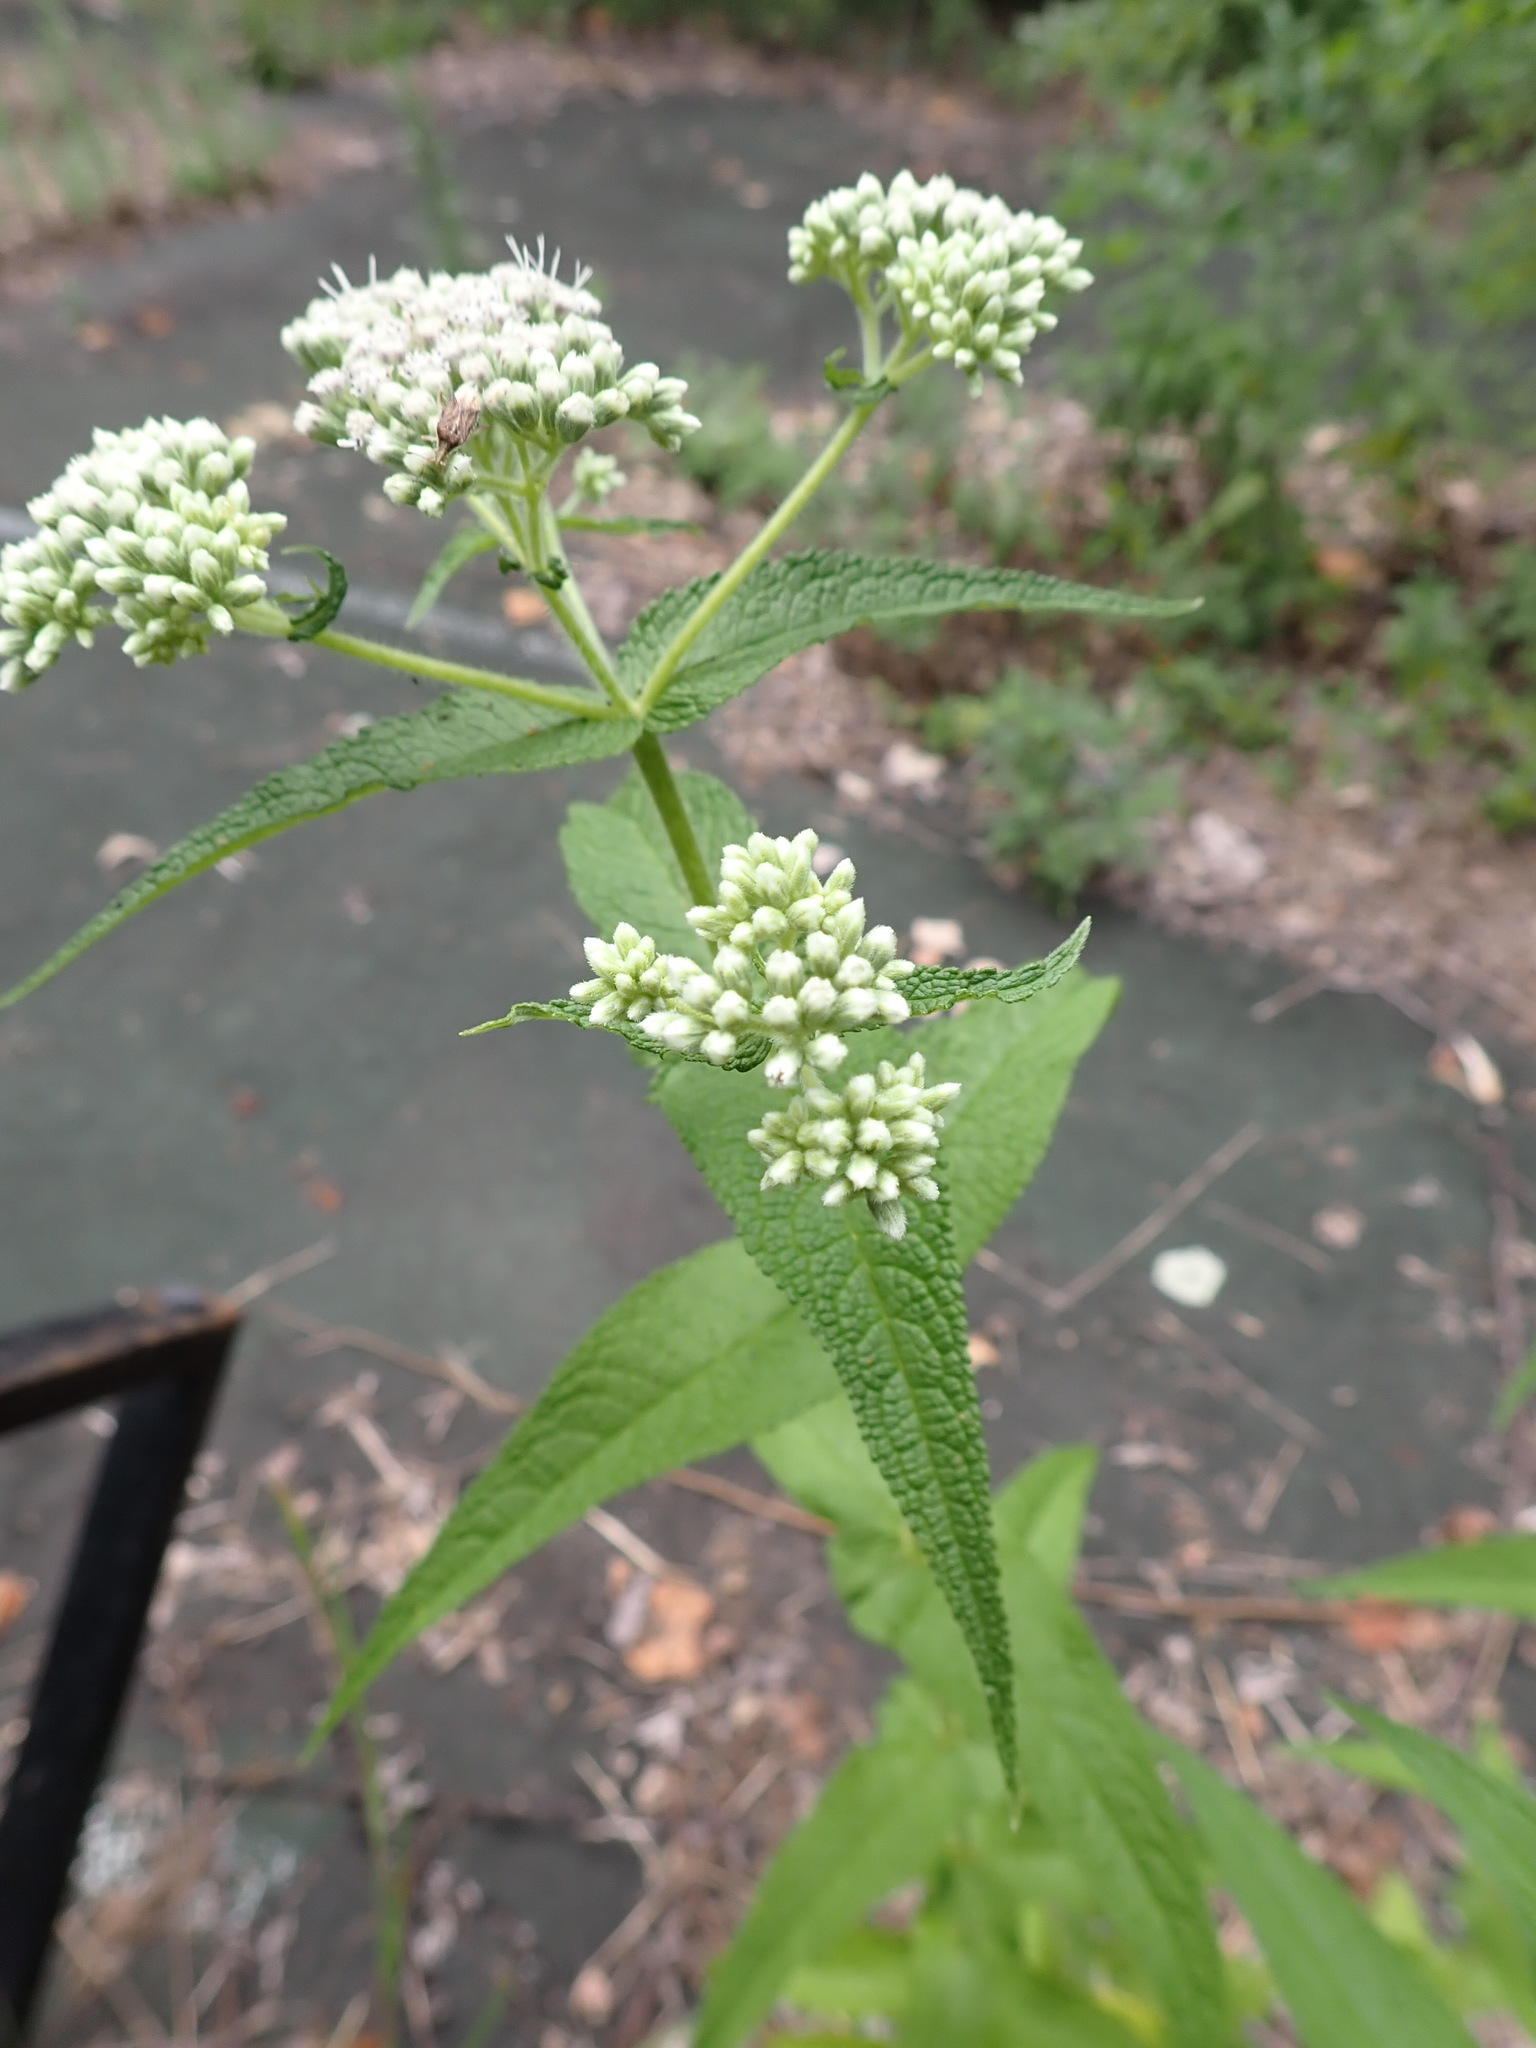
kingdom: Plantae
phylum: Tracheophyta
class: Magnoliopsida
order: Asterales
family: Asteraceae
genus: Eupatorium
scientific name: Eupatorium perfoliatum
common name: Boneset
